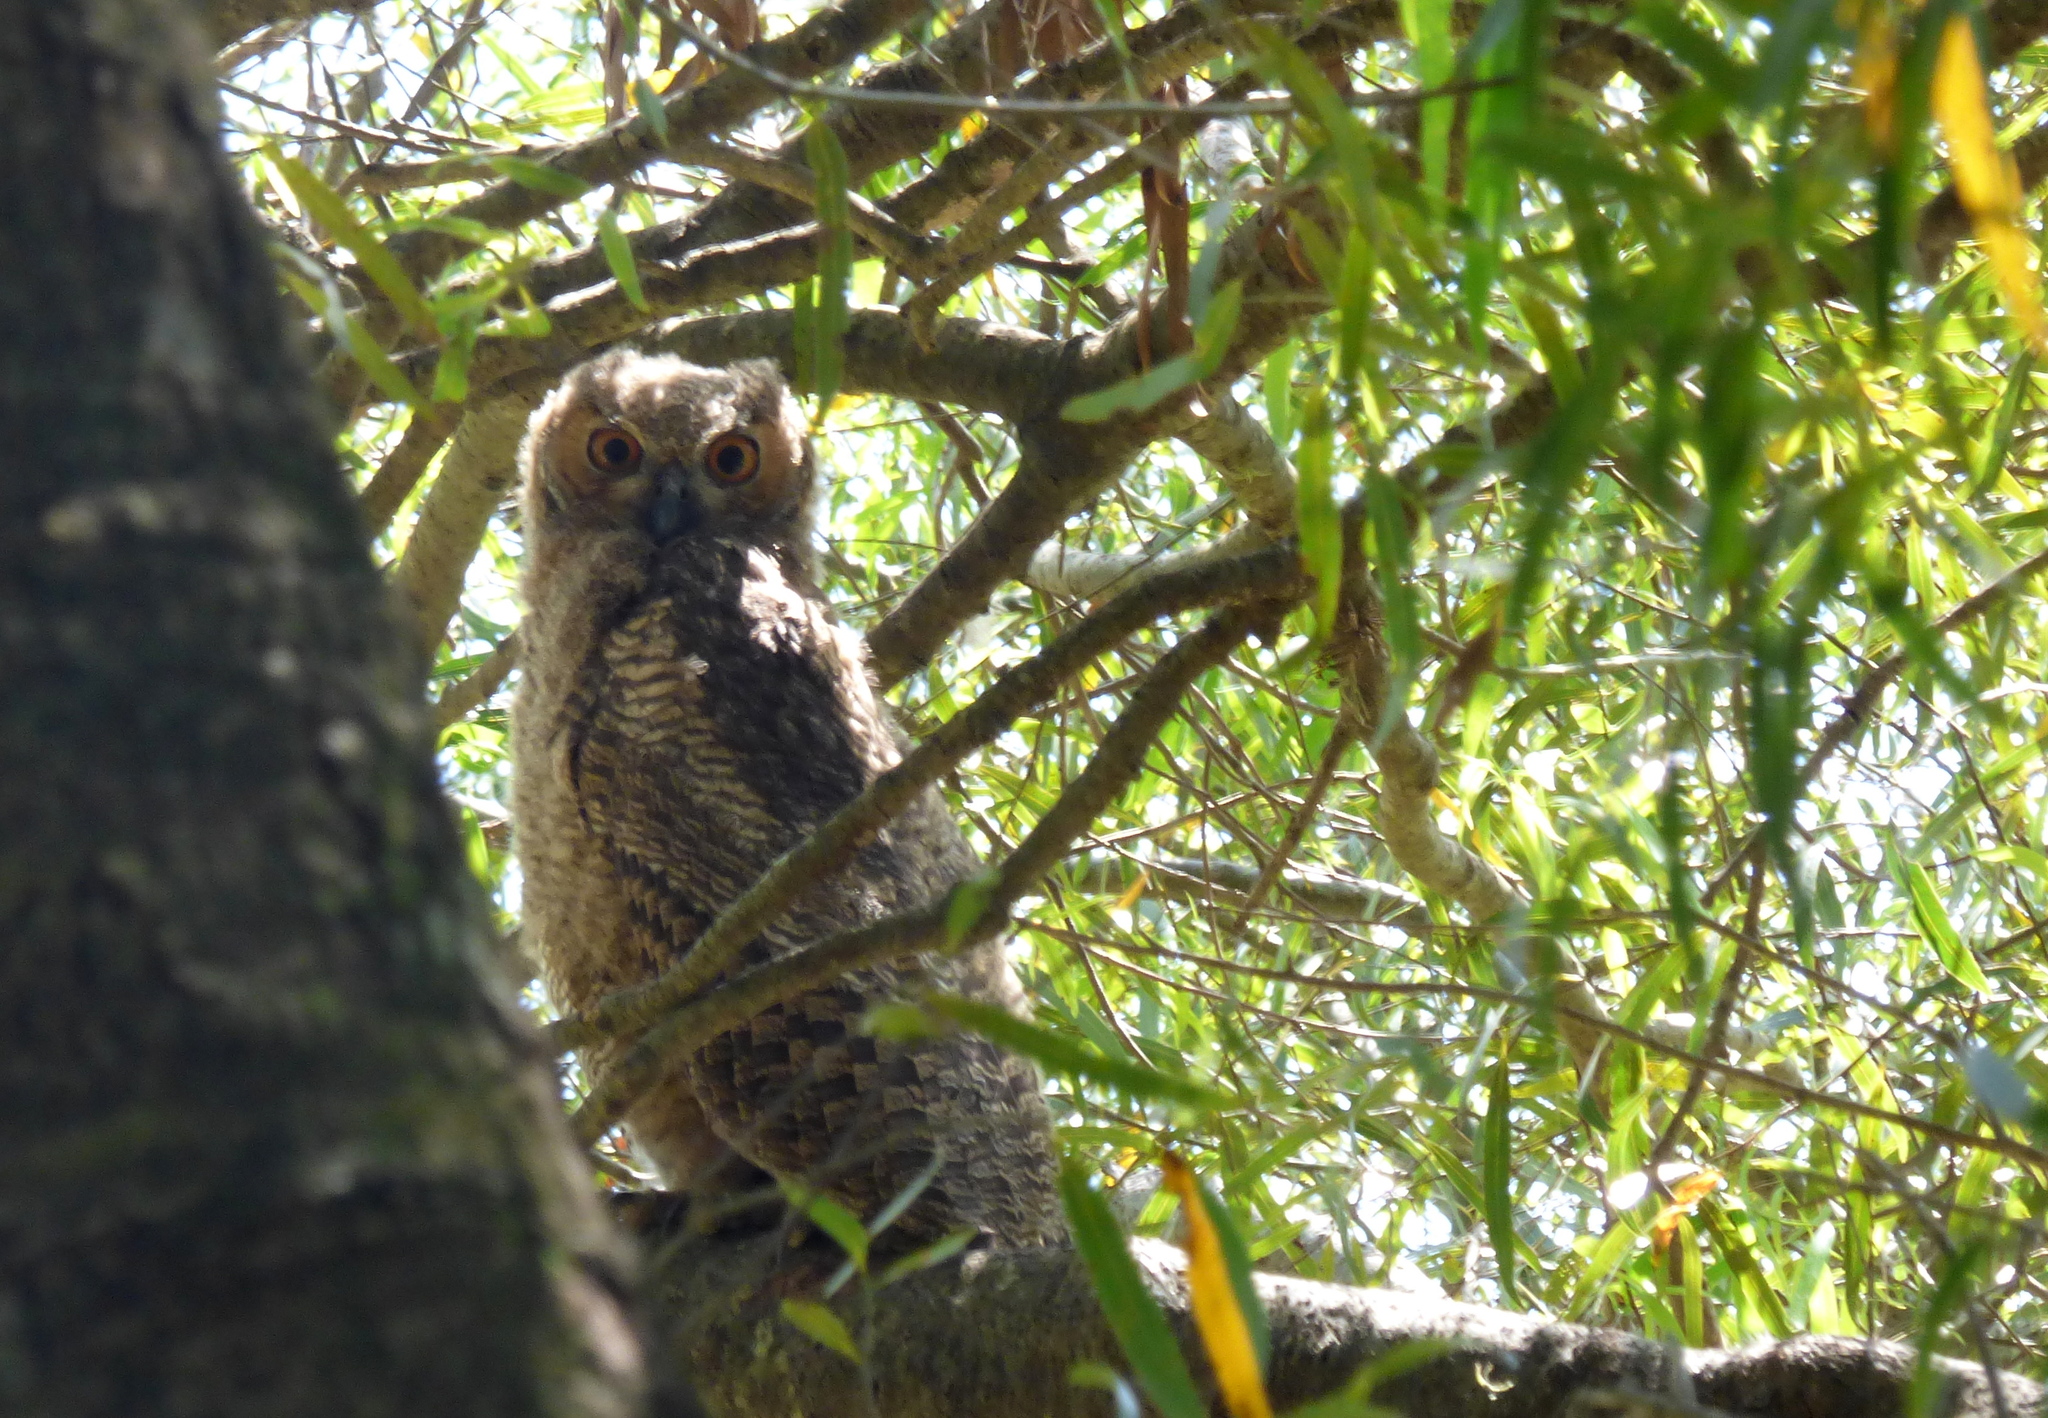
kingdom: Animalia
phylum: Chordata
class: Aves
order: Strigiformes
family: Strigidae
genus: Bubo
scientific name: Bubo virginianus
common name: Great horned owl
